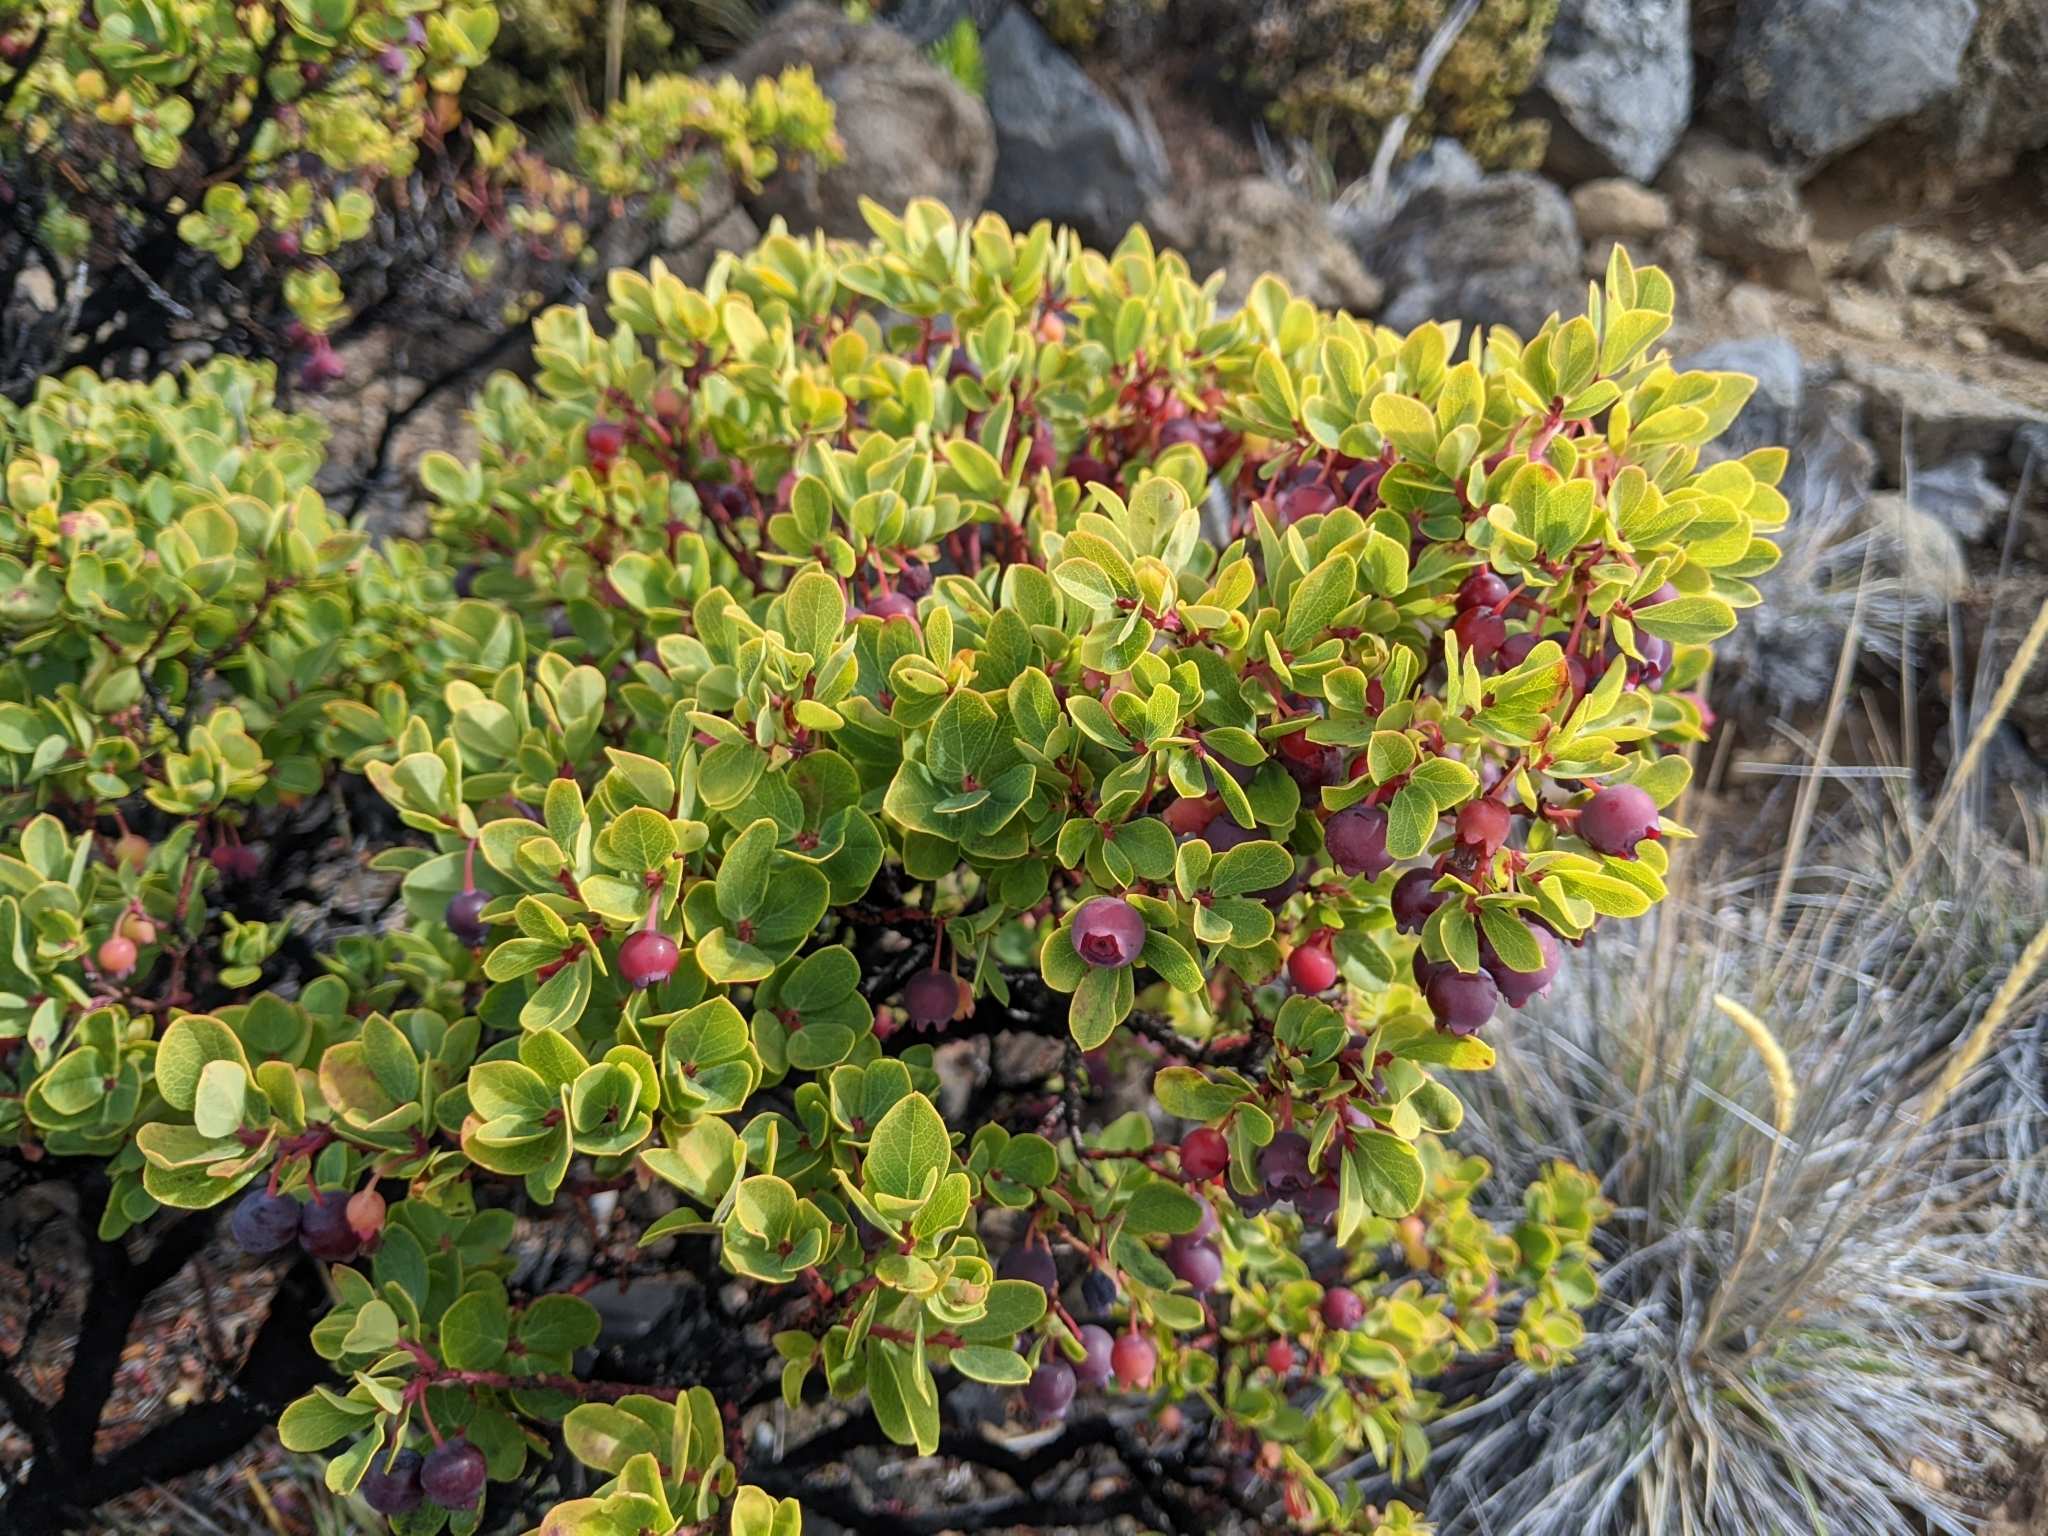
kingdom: Plantae
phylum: Tracheophyta
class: Magnoliopsida
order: Ericales
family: Ericaceae
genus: Vaccinium
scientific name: Vaccinium reticulatum
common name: Ohelo
